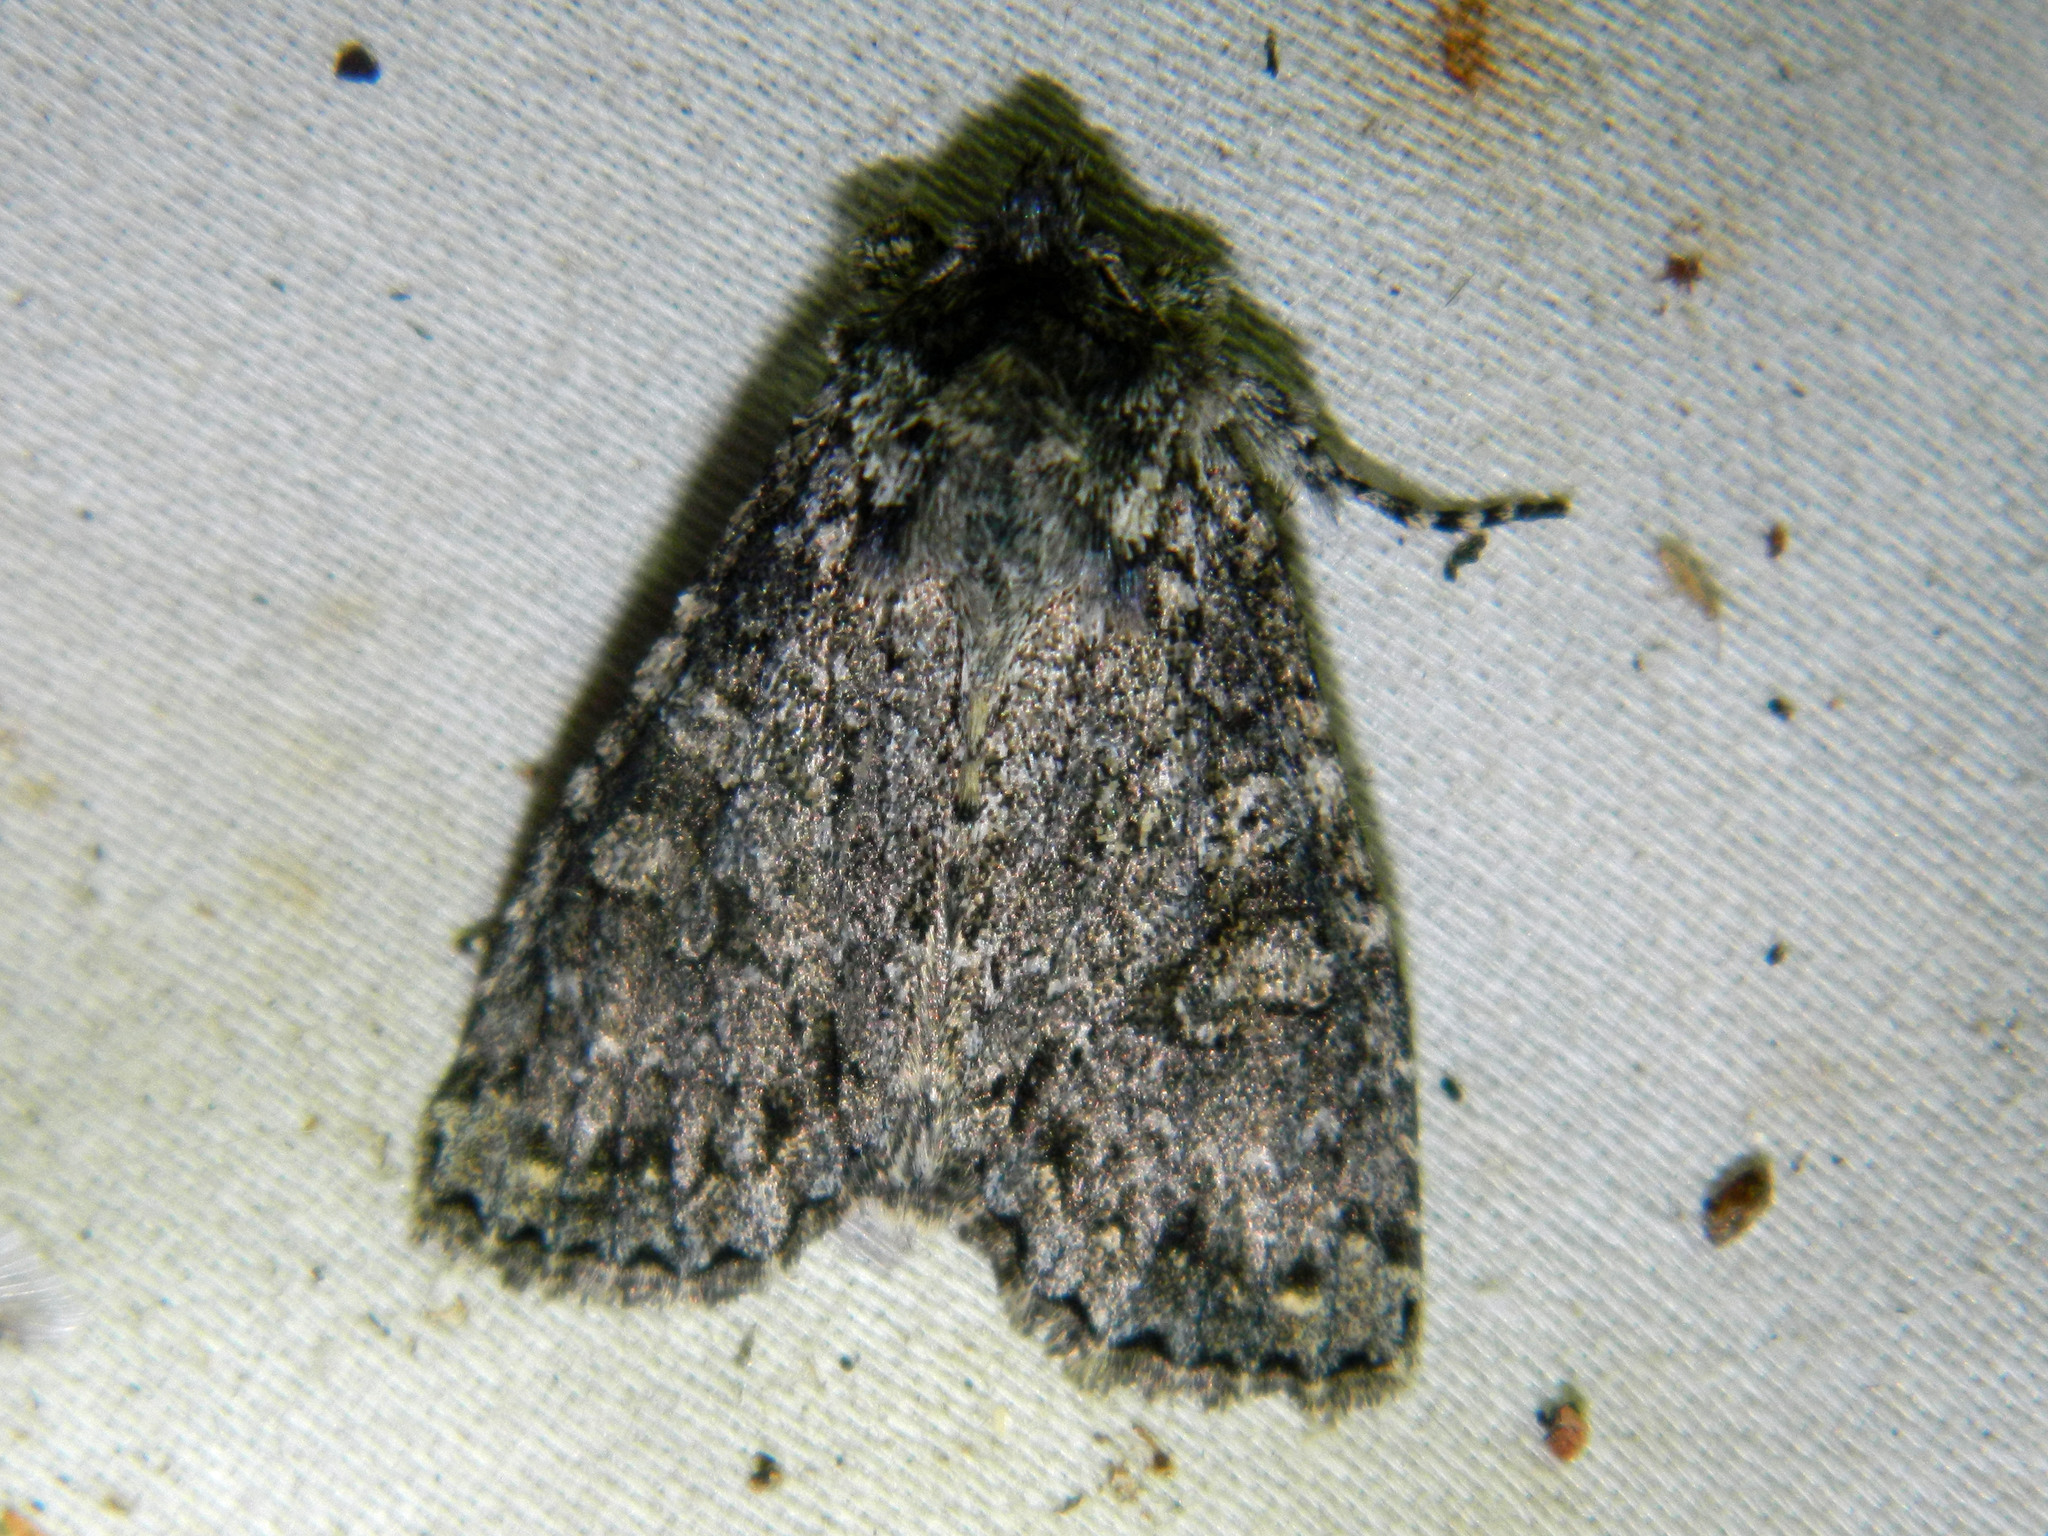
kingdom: Animalia
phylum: Arthropoda
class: Insecta
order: Lepidoptera
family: Noctuidae
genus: Polia
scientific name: Polia imbrifera
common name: Cloudy arches moth
